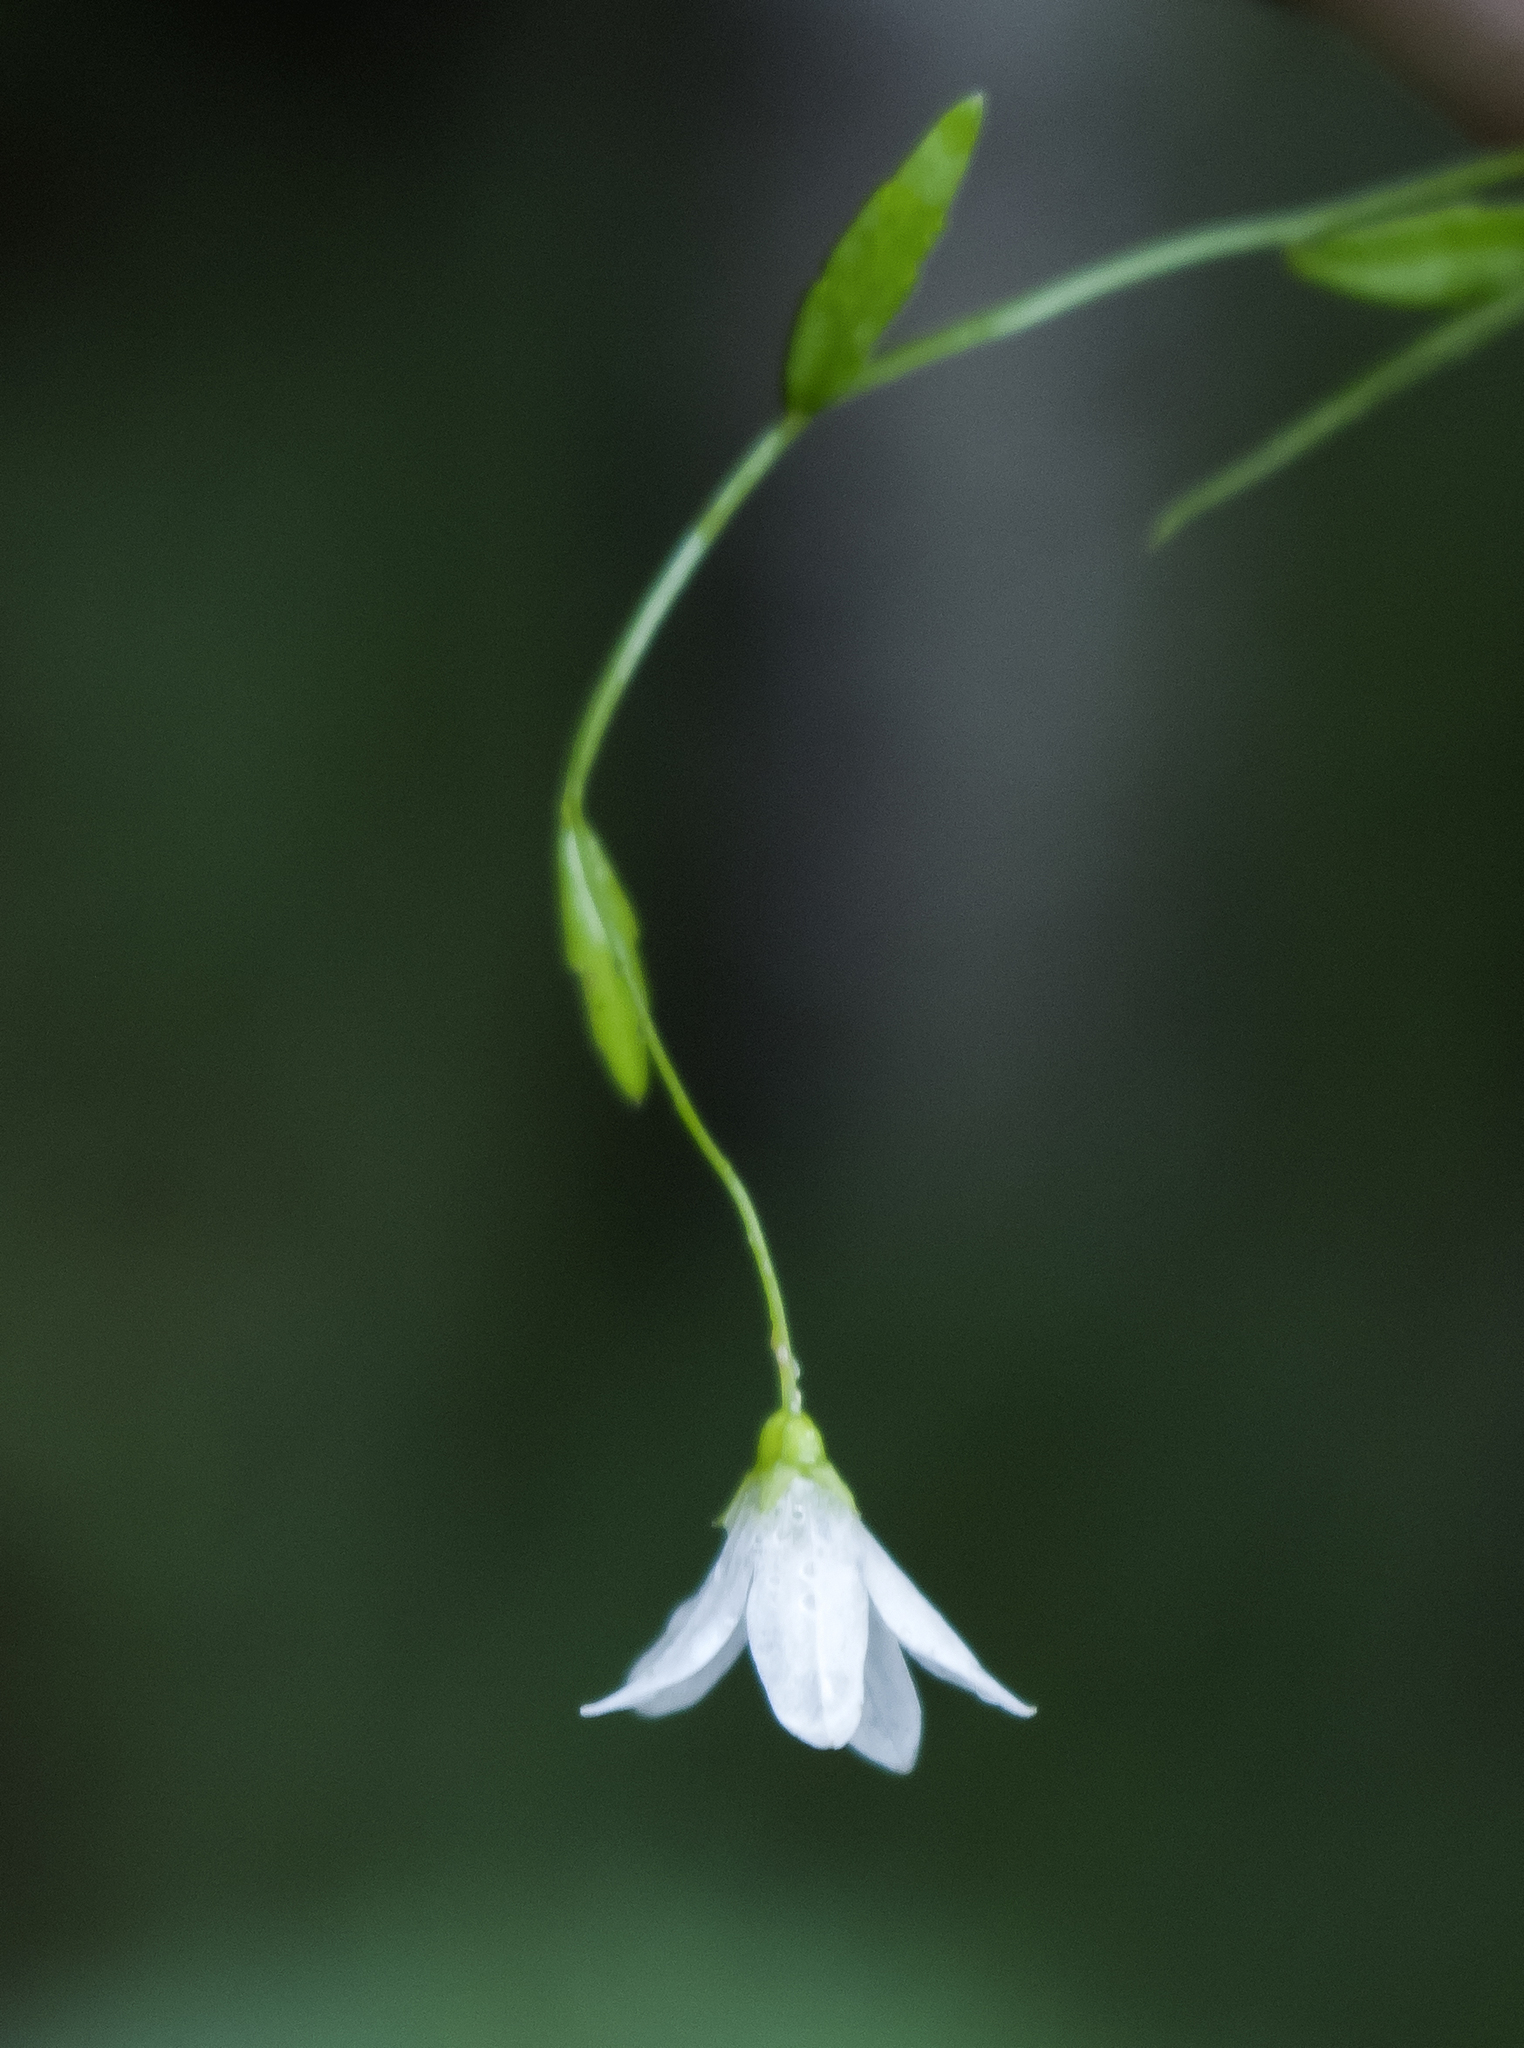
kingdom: Plantae
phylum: Tracheophyta
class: Magnoliopsida
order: Asterales
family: Campanulaceae
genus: Palustricodon
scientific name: Palustricodon aparinoides
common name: Bedstraw bellflower
